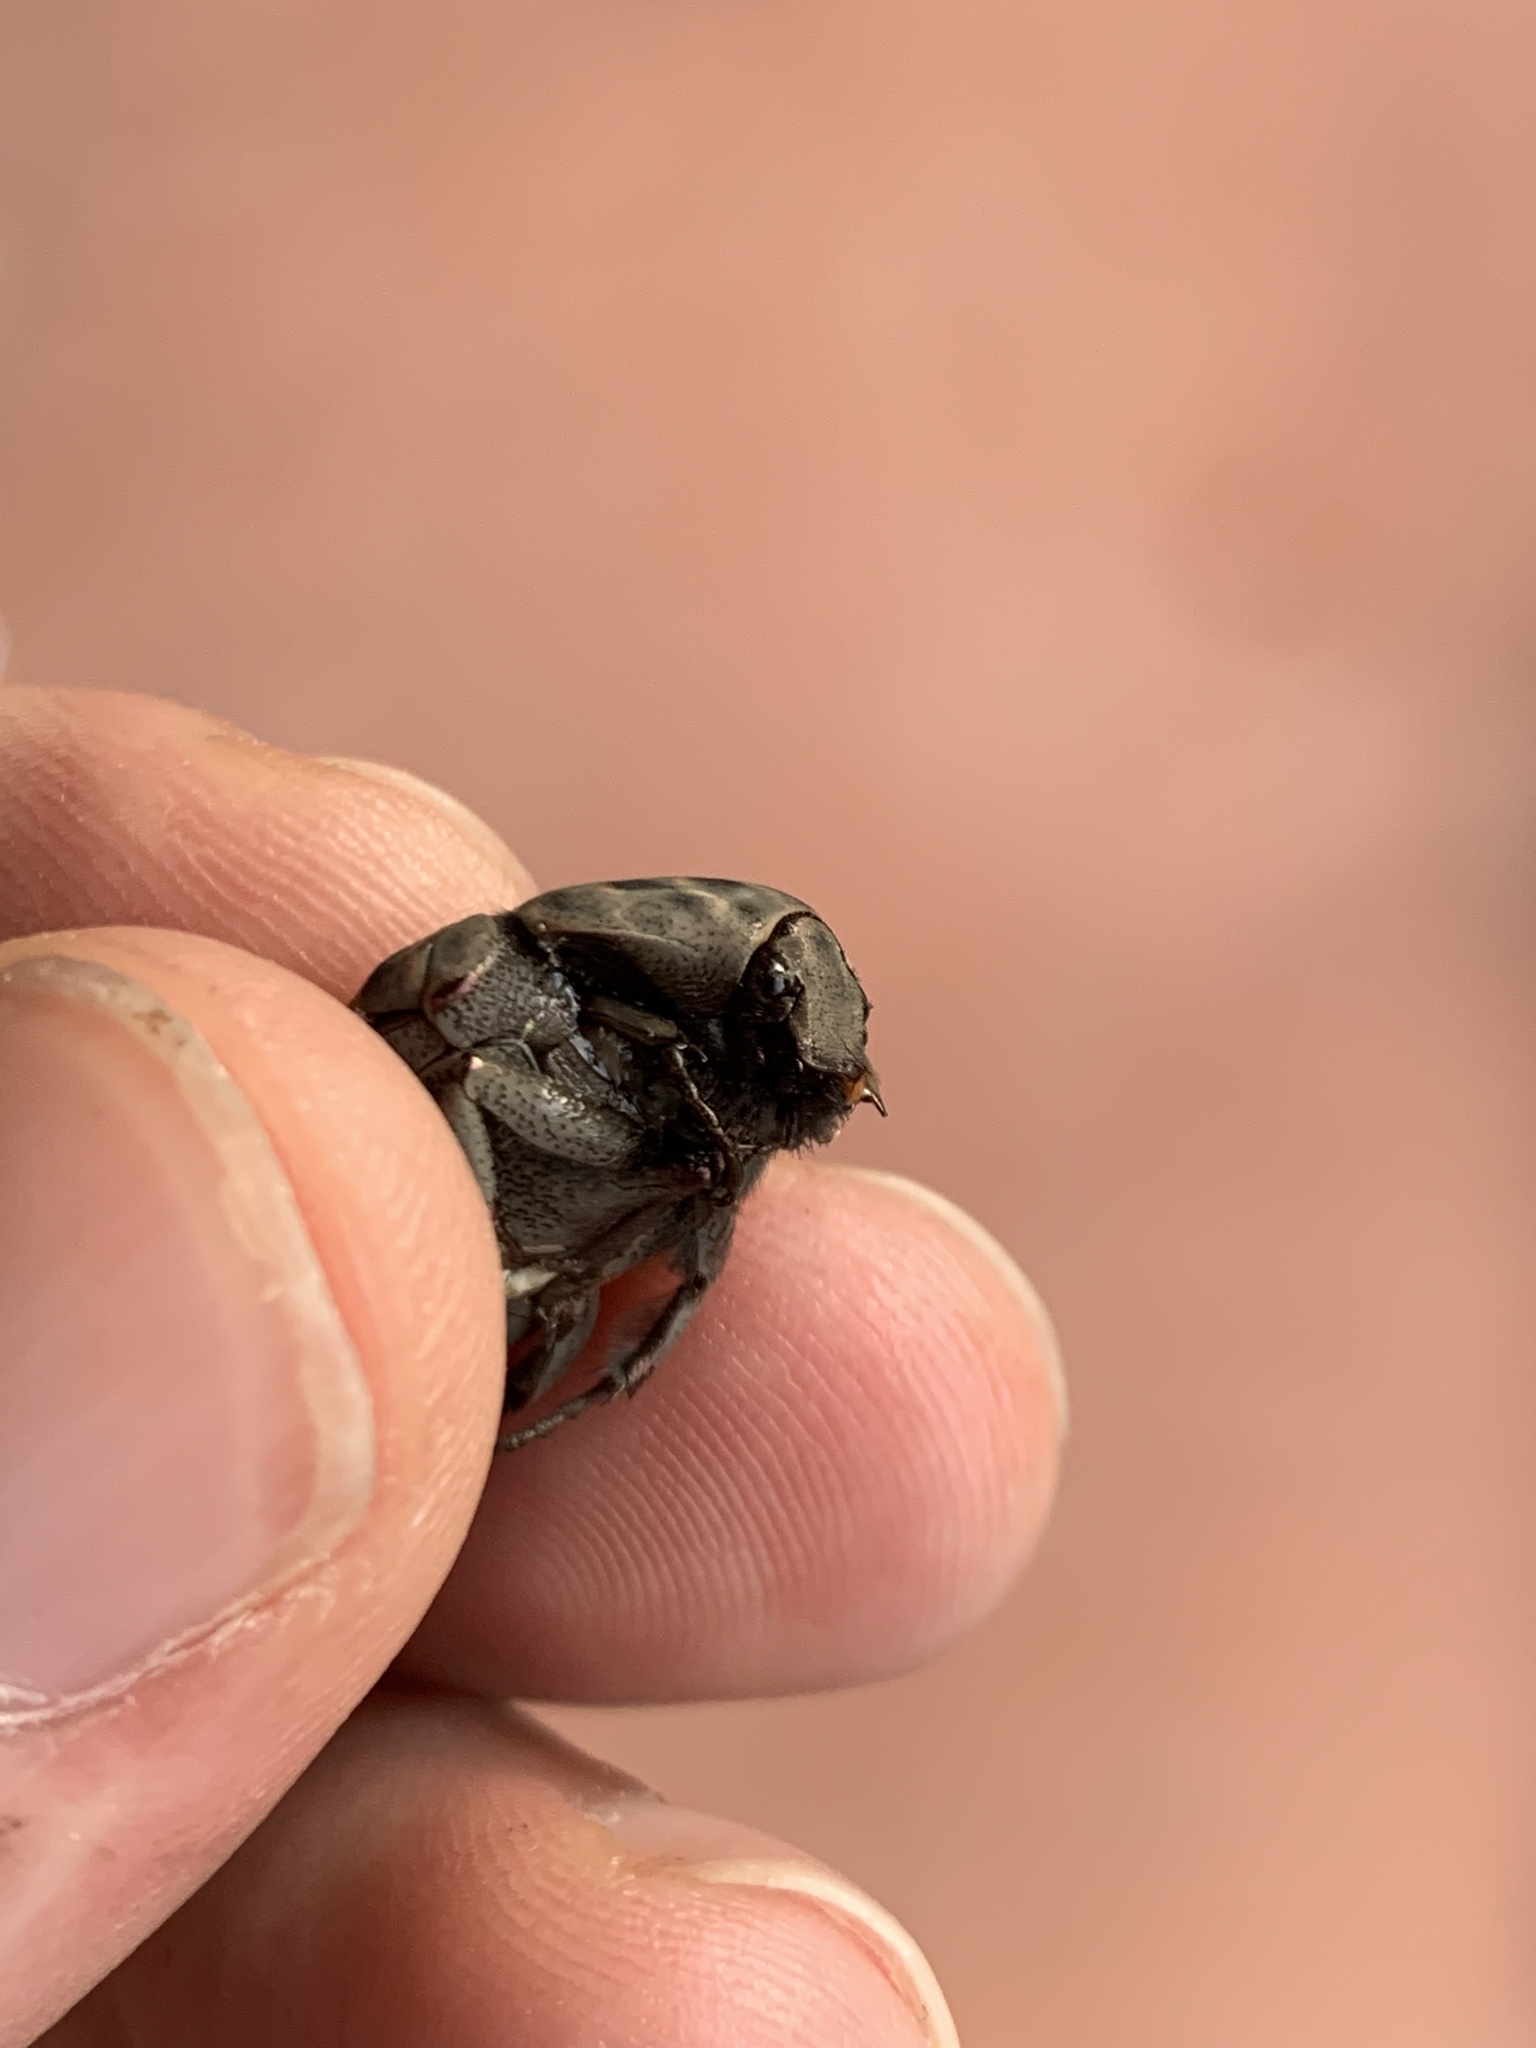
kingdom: Animalia
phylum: Arthropoda
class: Insecta
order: Coleoptera
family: Scarabaeidae
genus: Gymnetis
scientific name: Gymnetis chalcipes
